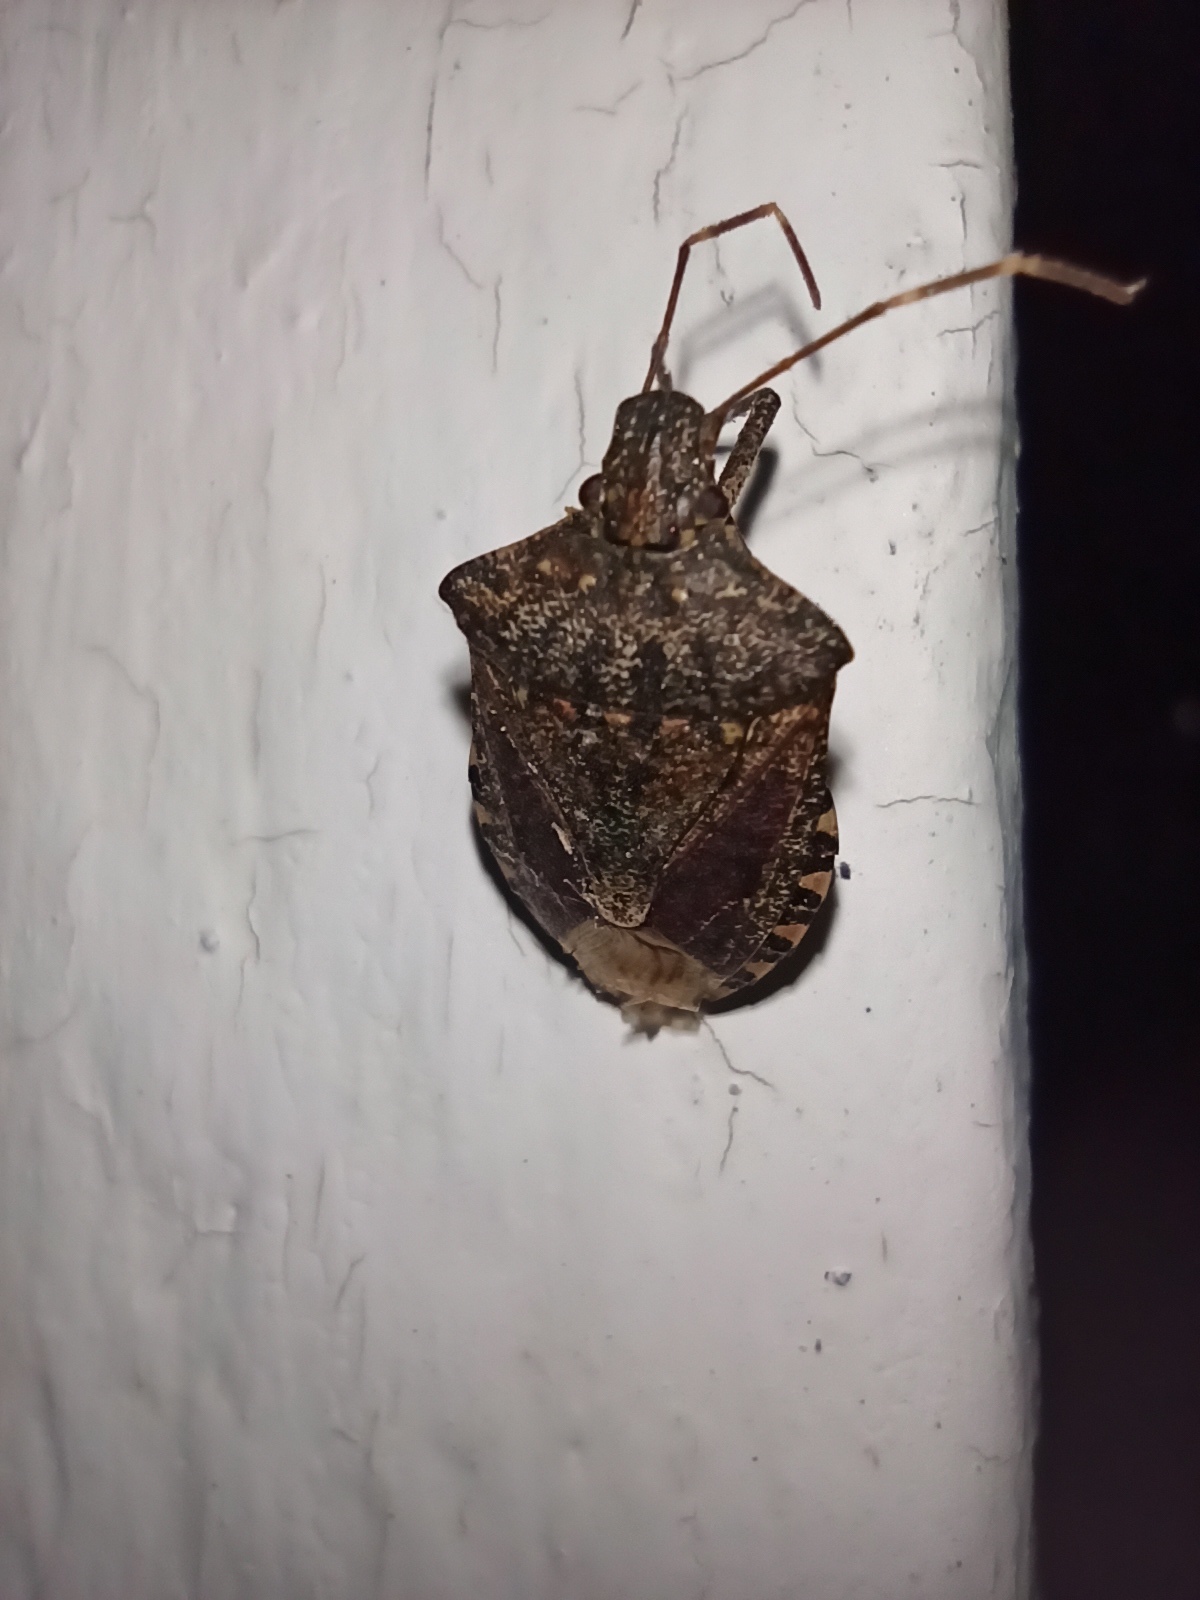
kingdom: Animalia
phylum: Arthropoda
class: Insecta
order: Hemiptera
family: Pentatomidae
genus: Halyomorpha
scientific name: Halyomorpha halys
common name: Brown marmorated stink bug
